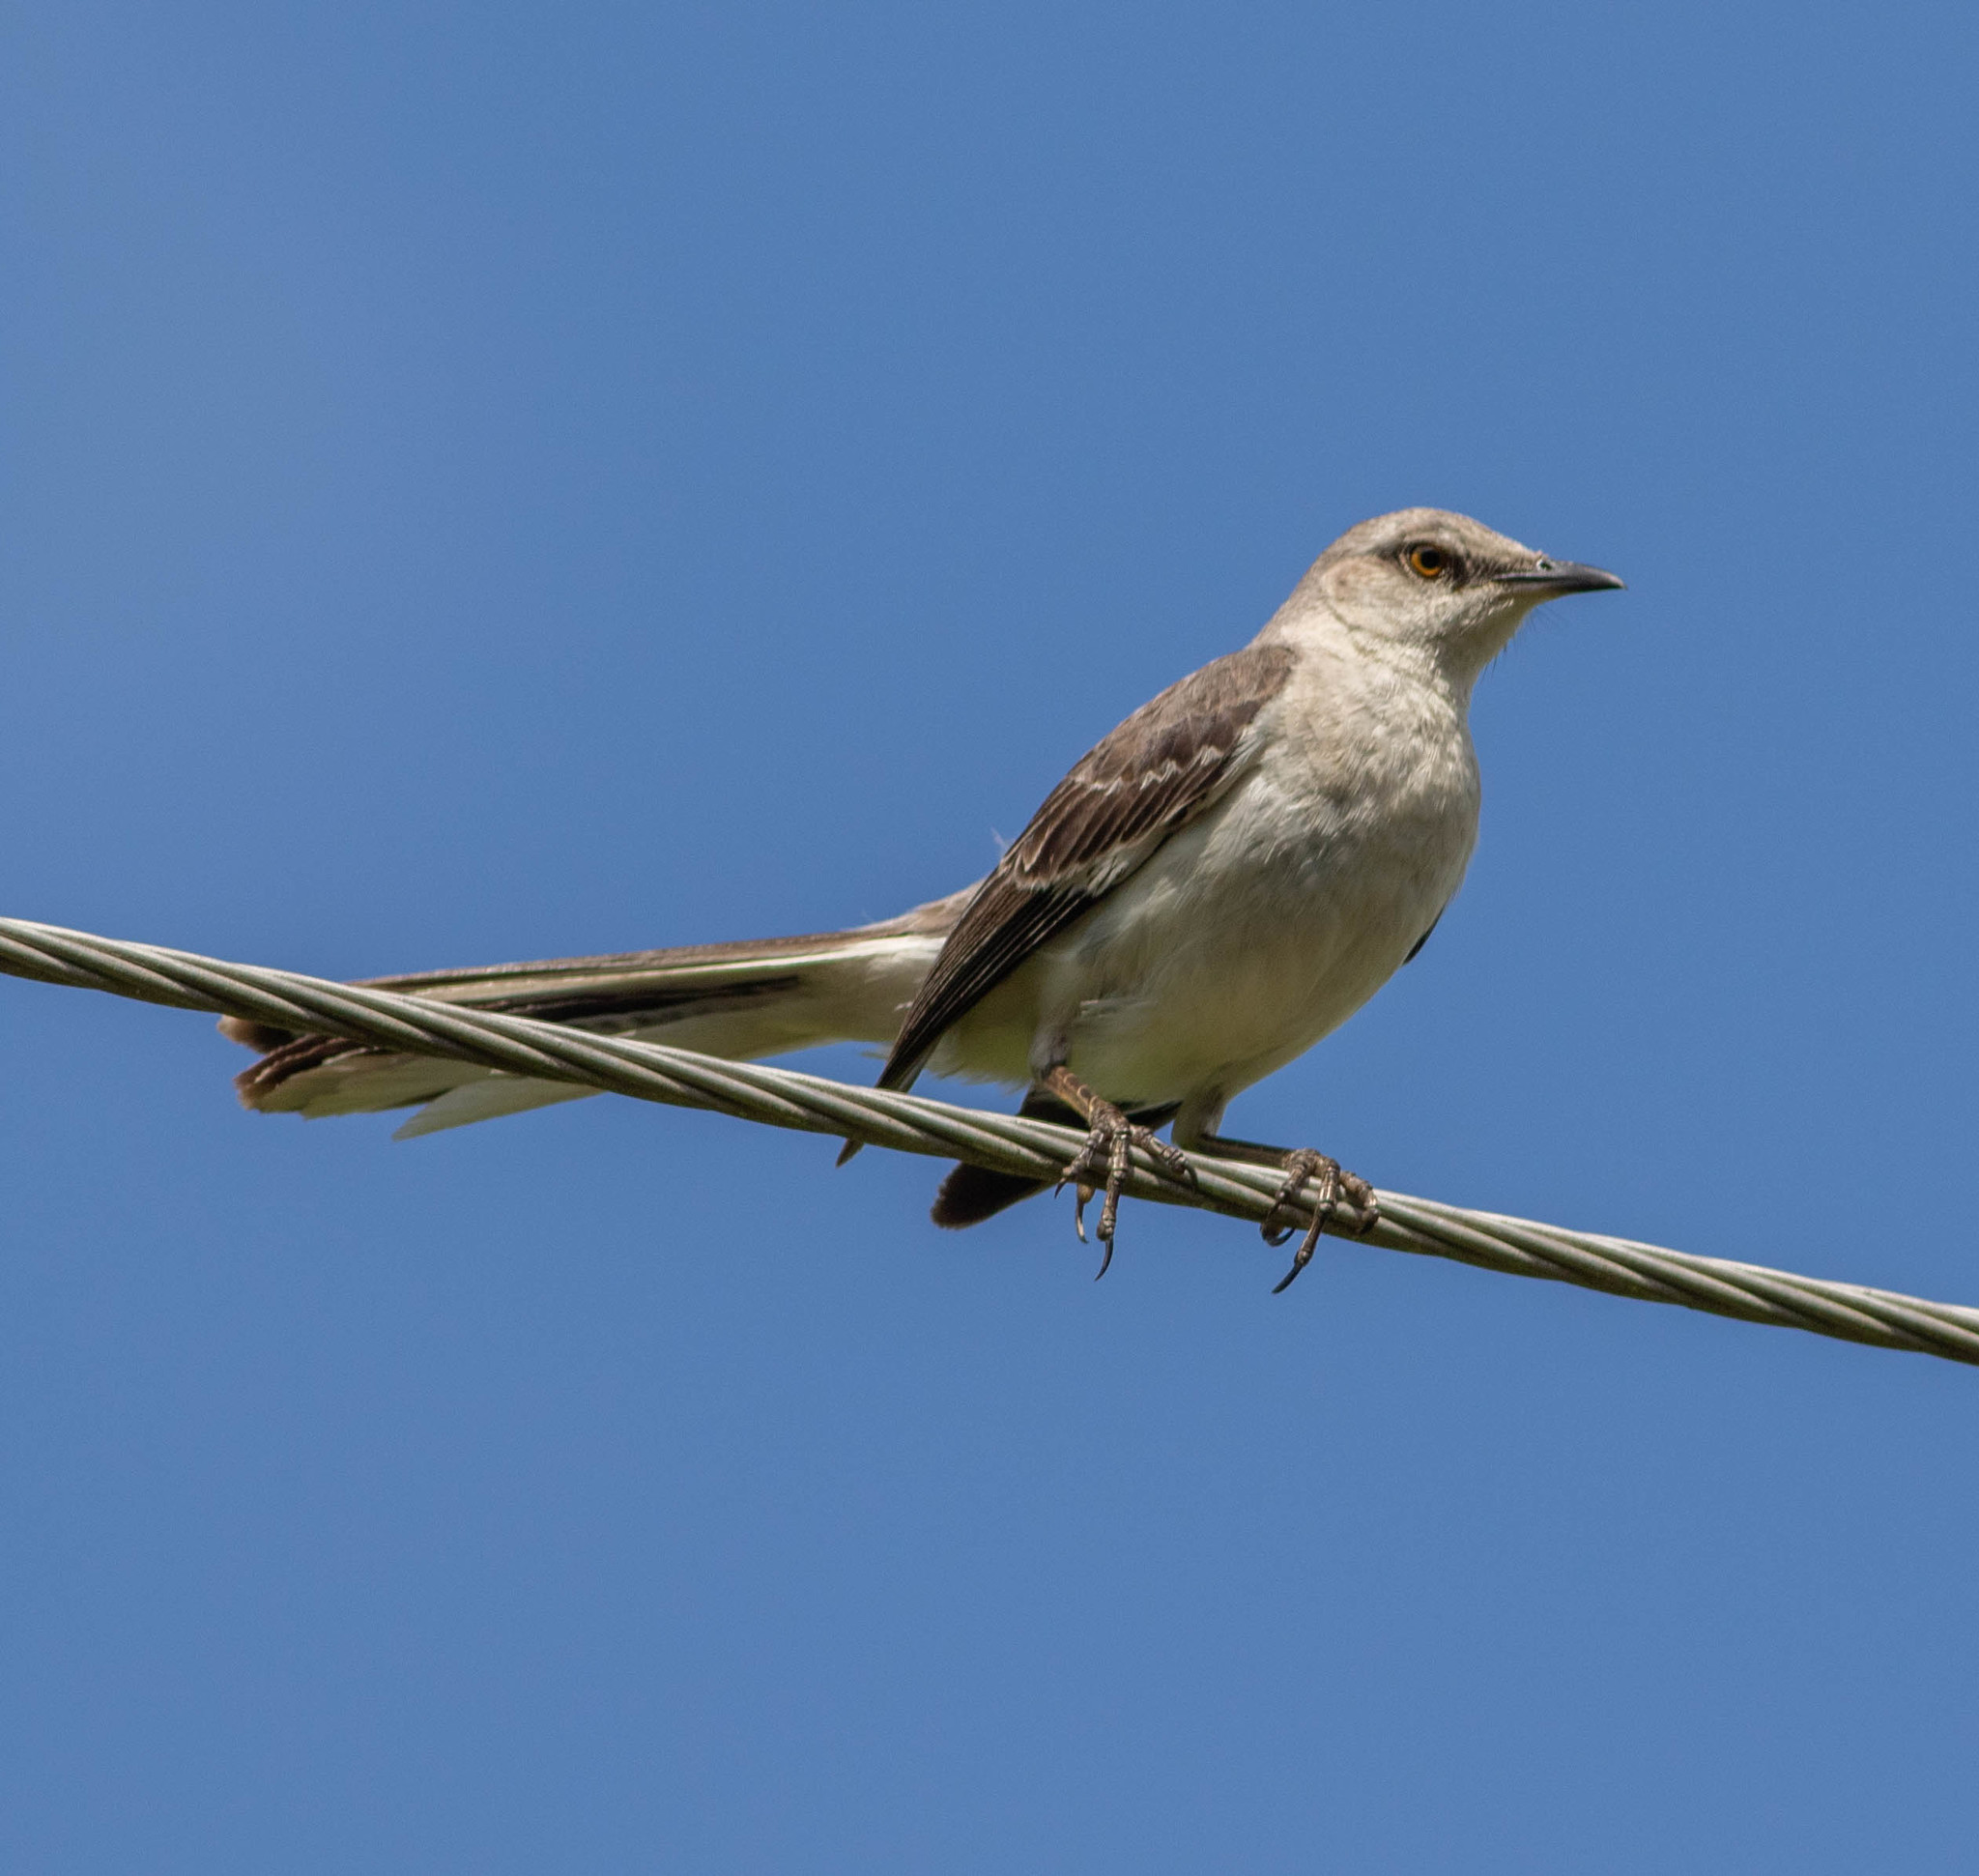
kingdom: Animalia
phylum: Chordata
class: Aves
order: Passeriformes
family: Mimidae
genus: Mimus
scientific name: Mimus polyglottos
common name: Northern mockingbird
